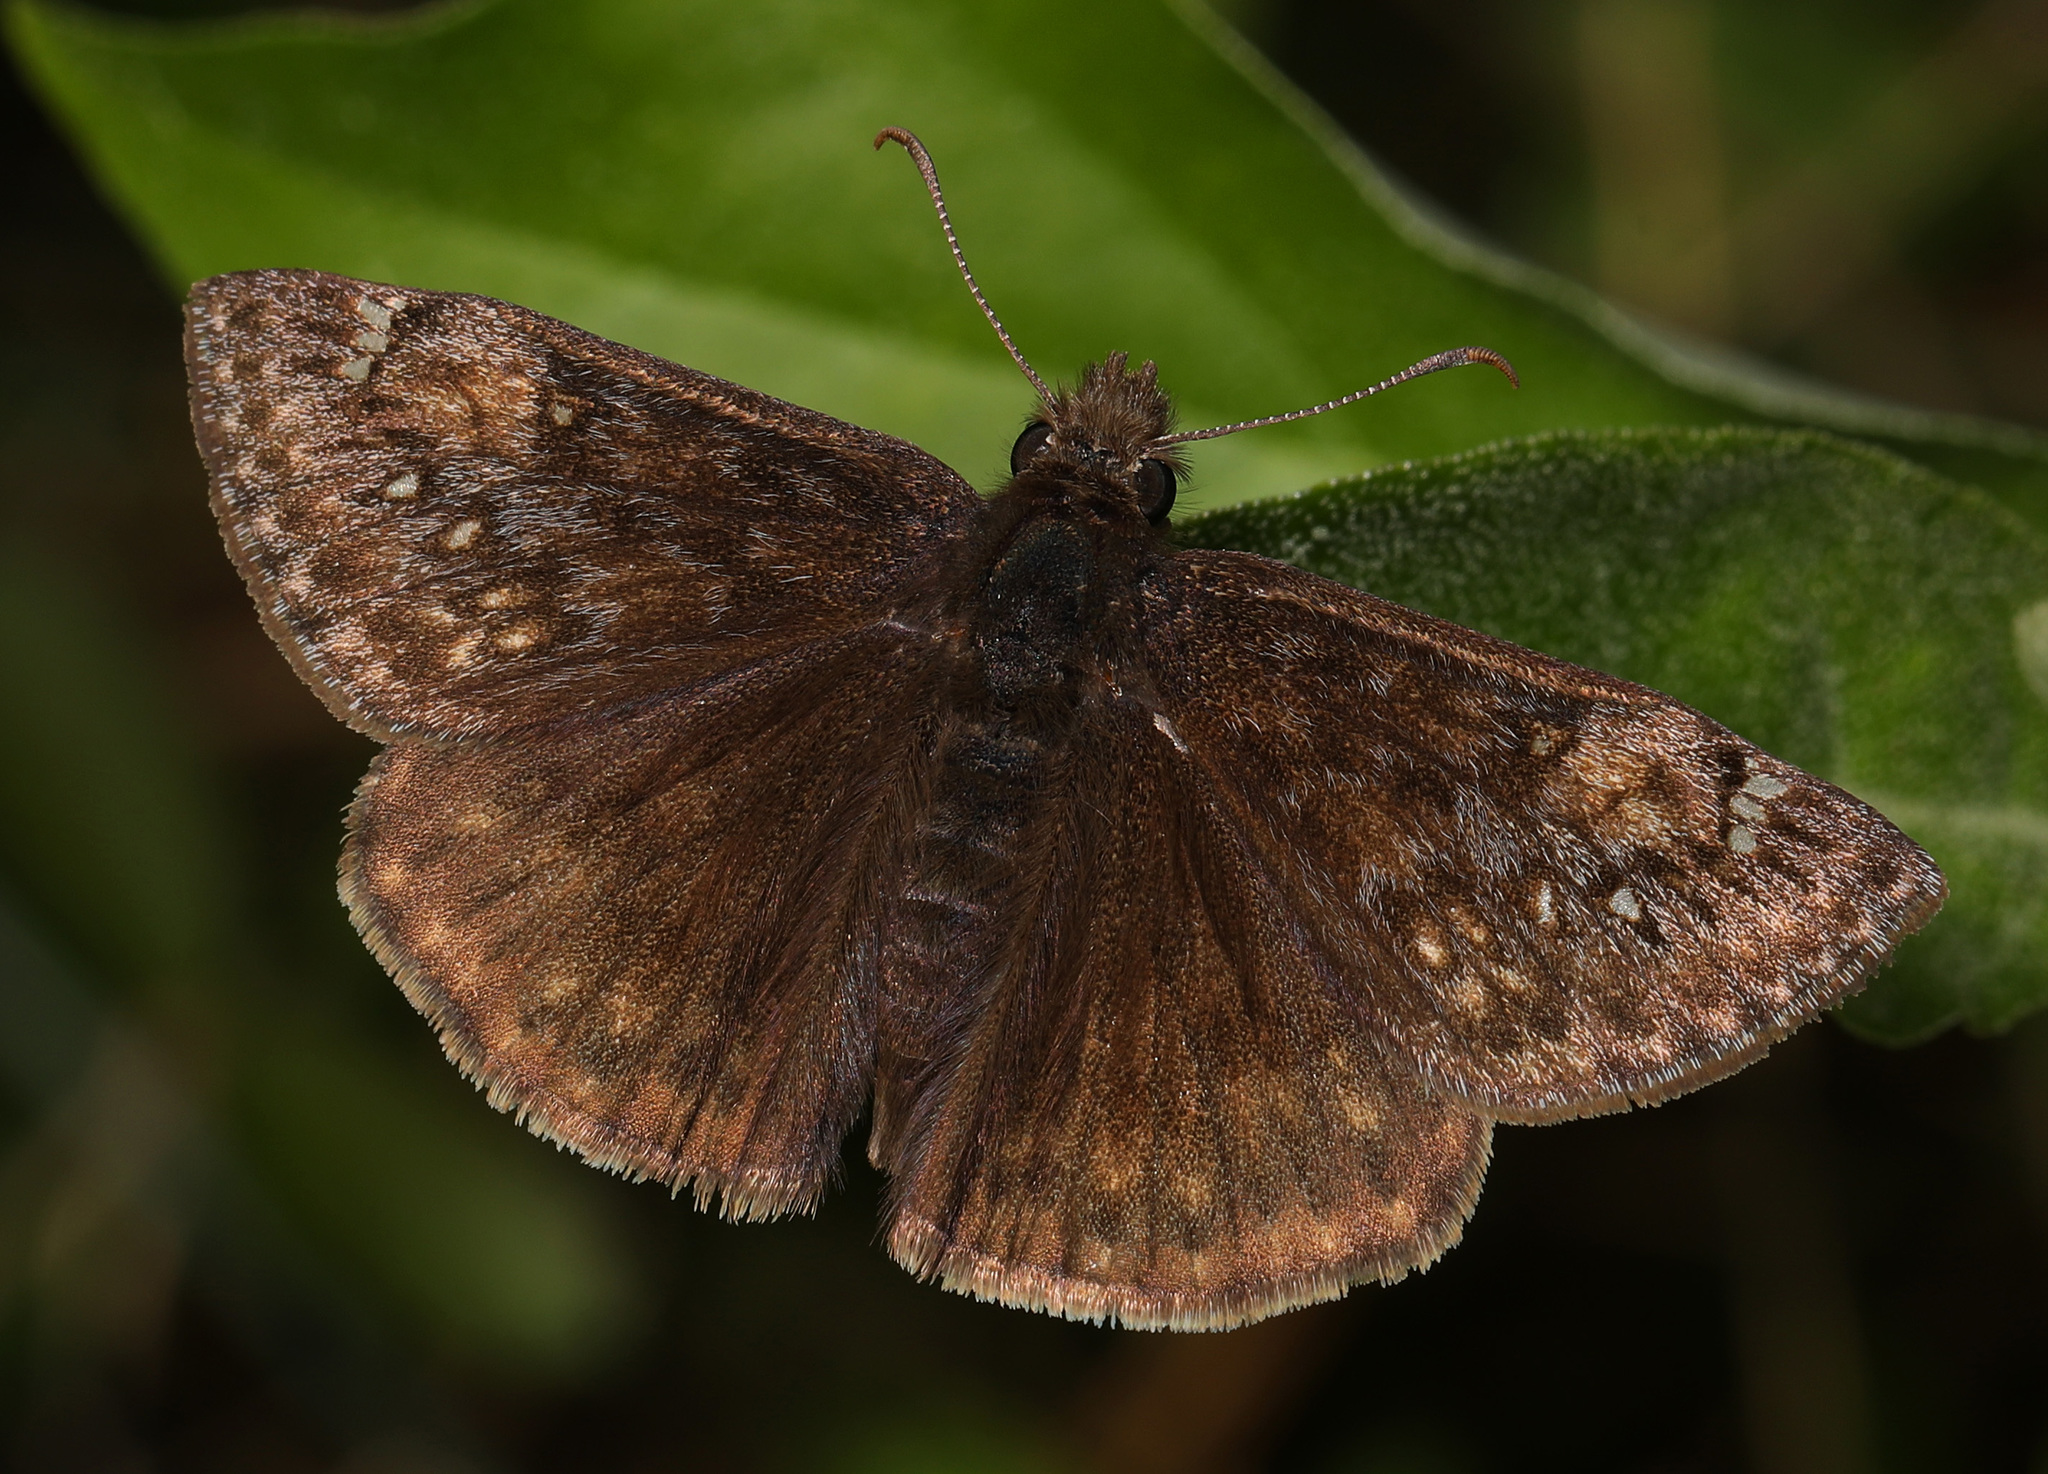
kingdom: Animalia
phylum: Arthropoda
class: Insecta
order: Lepidoptera
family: Hesperiidae
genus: Erynnis
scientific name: Erynnis juvenalis
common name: Juvenal's duskywing
